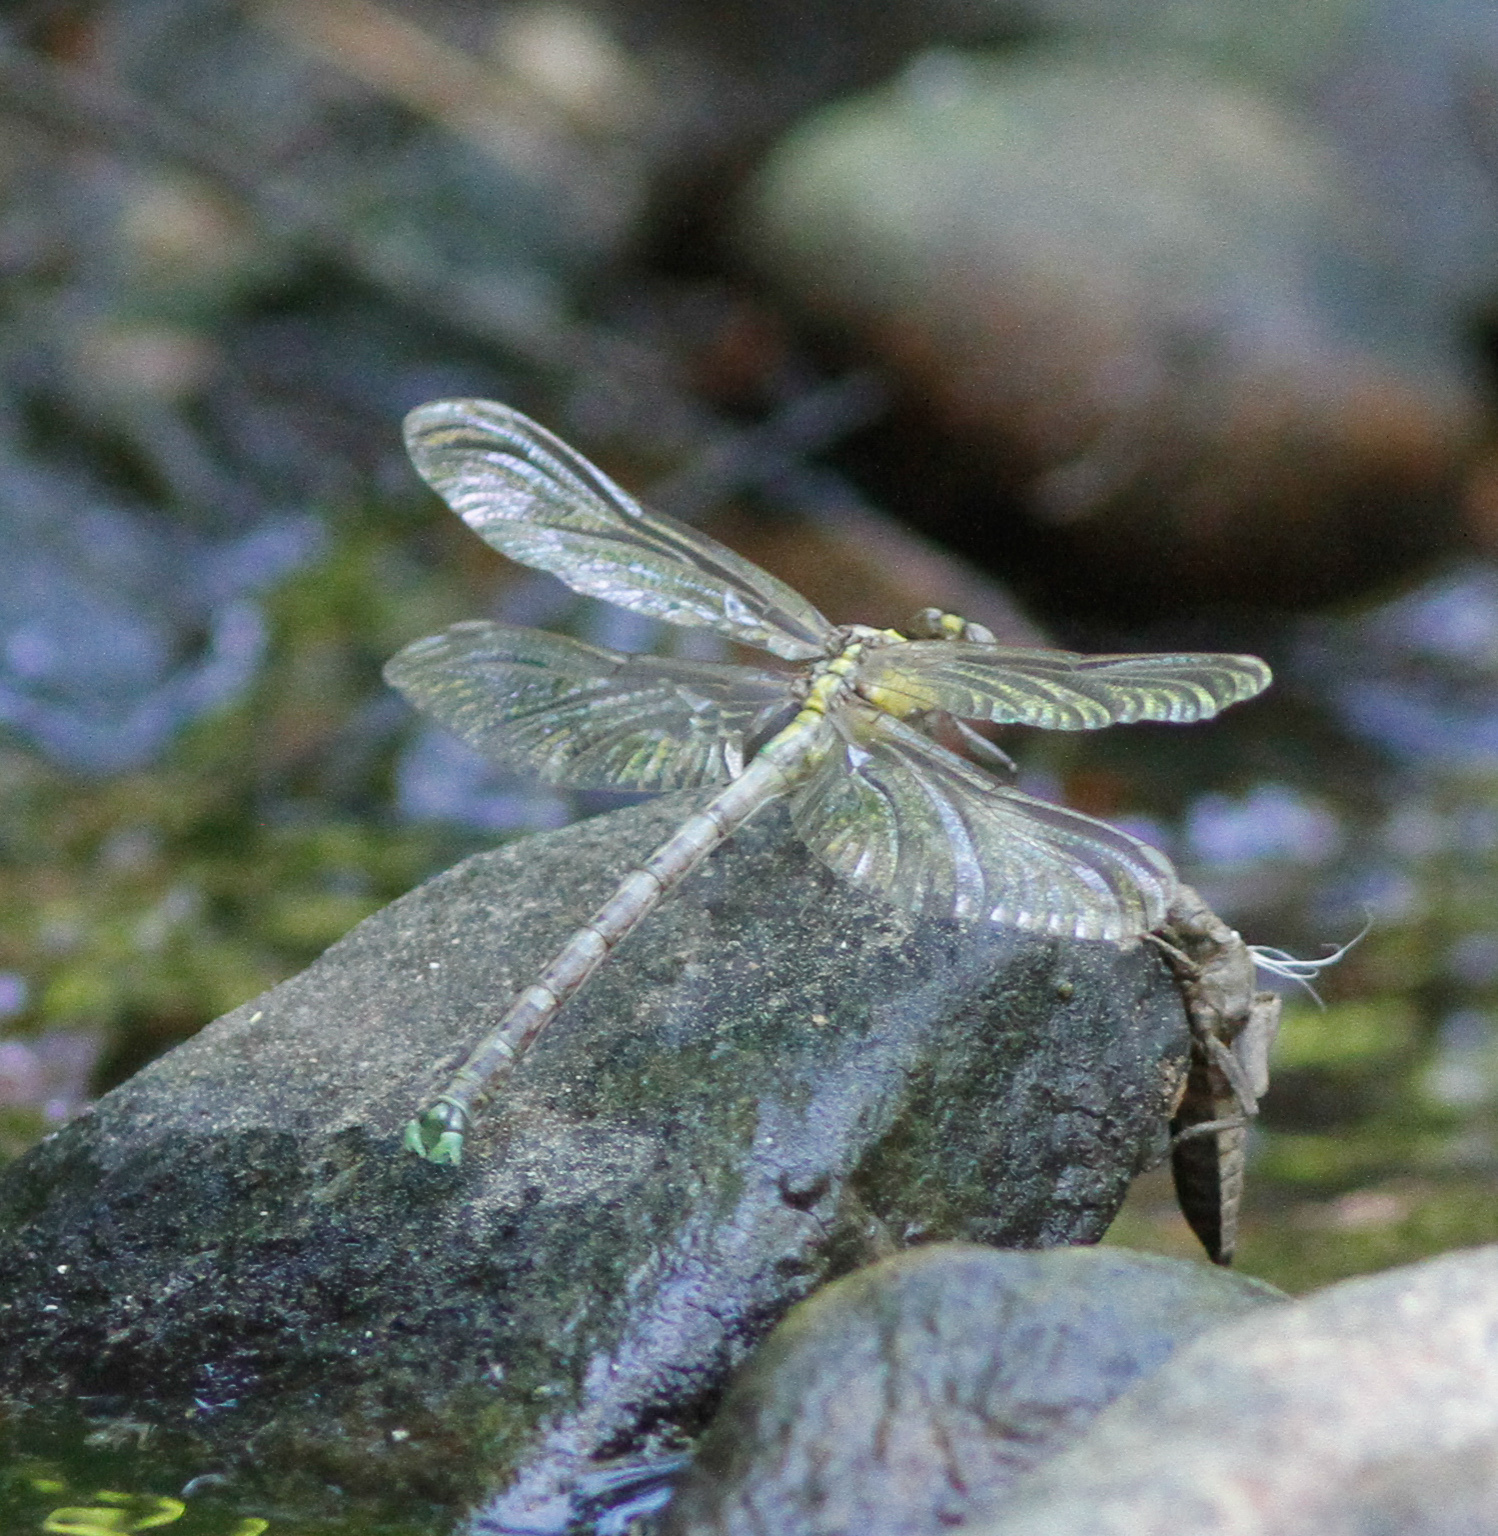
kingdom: Animalia
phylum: Arthropoda
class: Insecta
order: Odonata
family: Gomphidae
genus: Octogomphus
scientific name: Octogomphus specularis
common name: Grappletail
